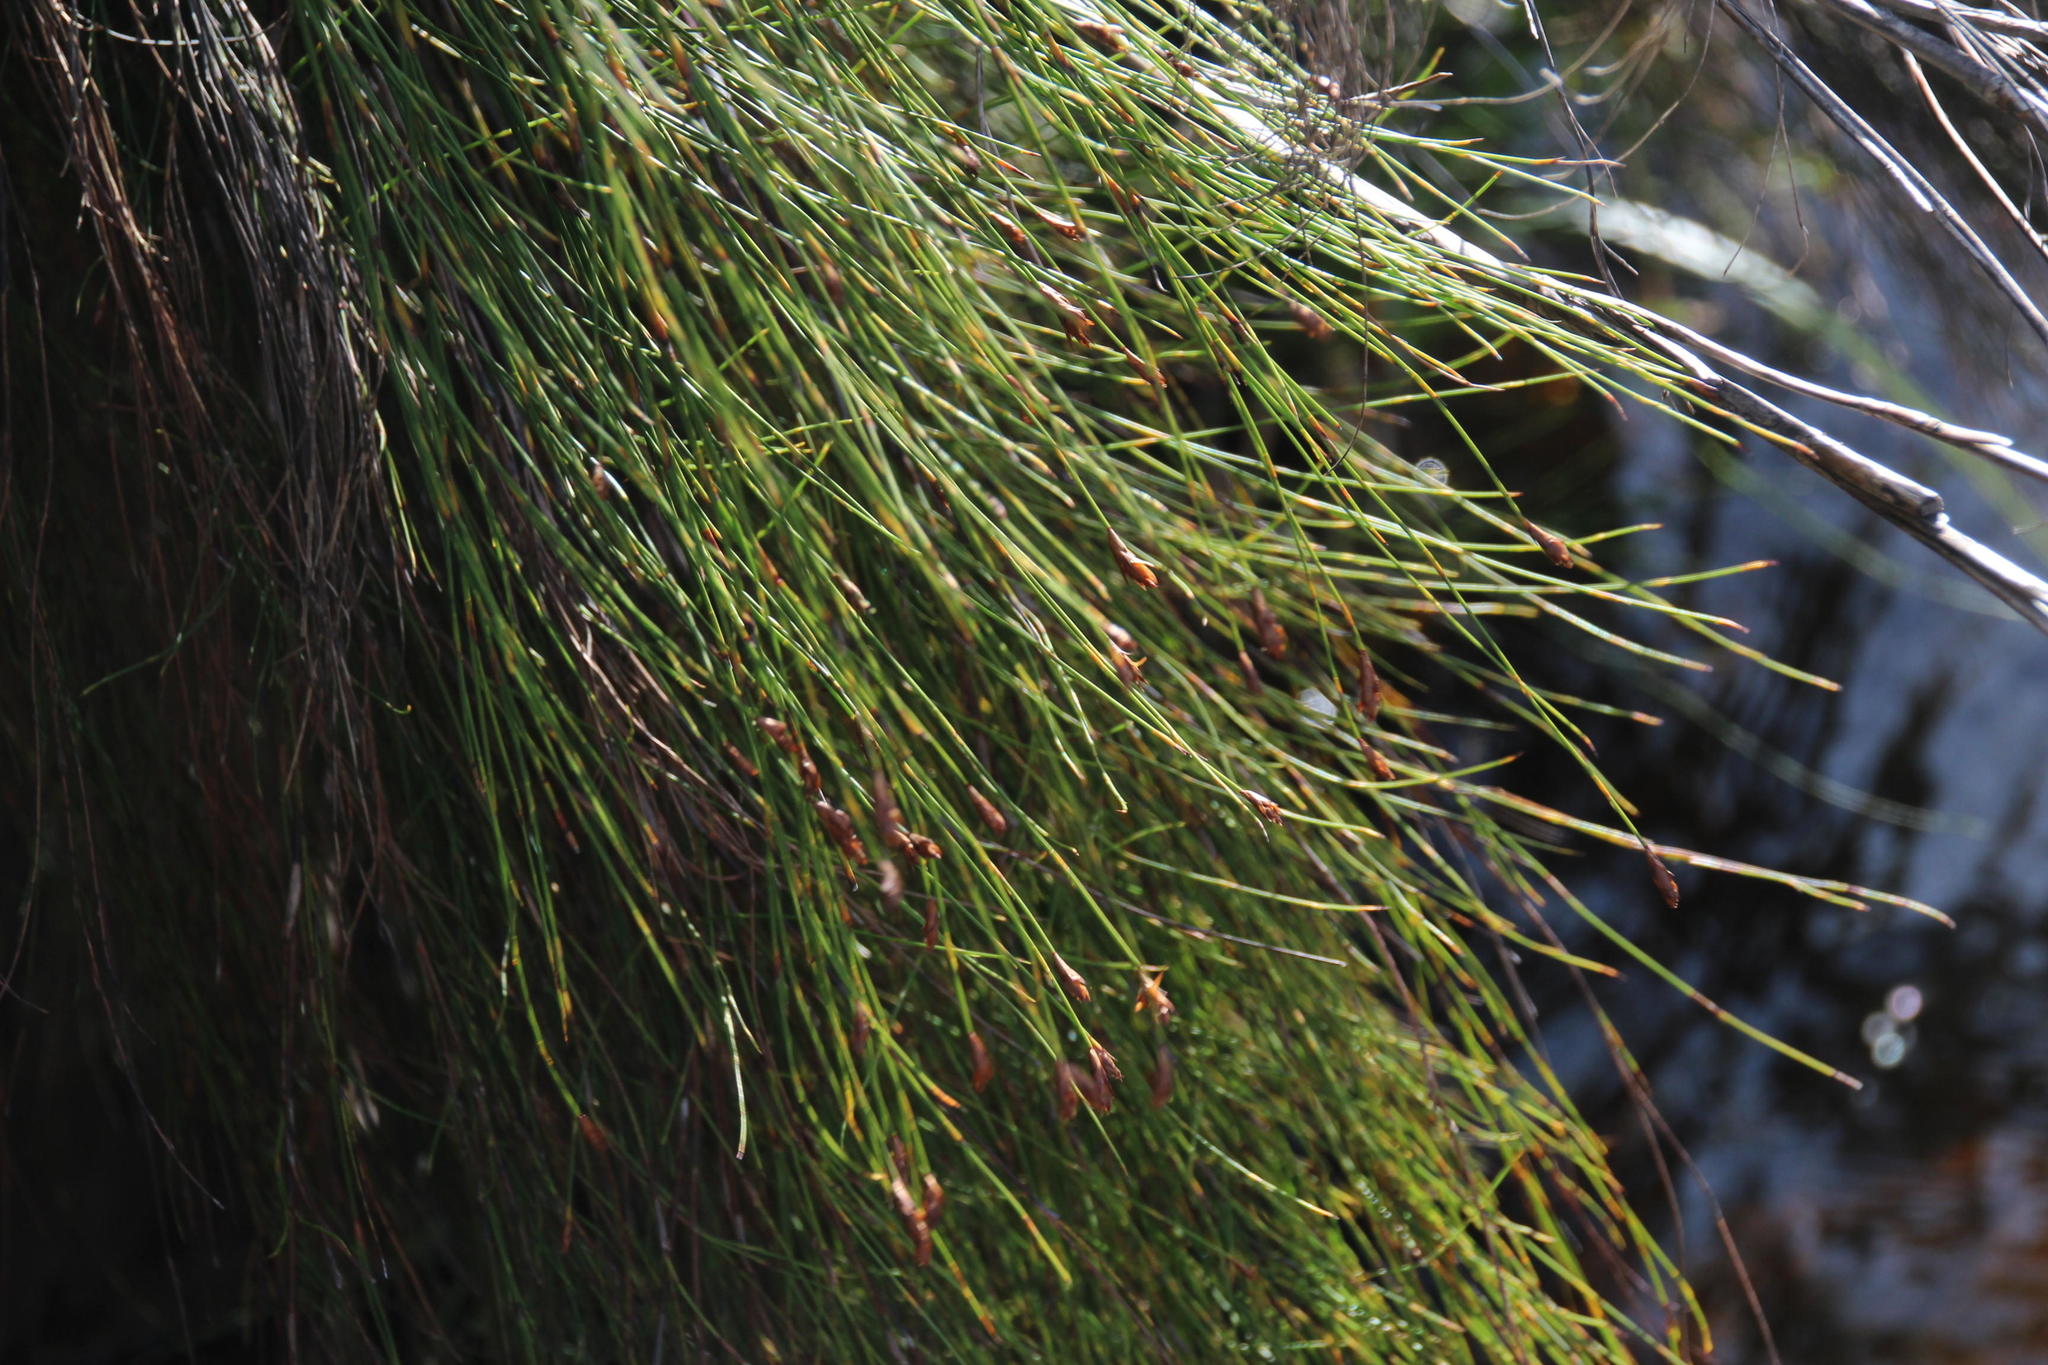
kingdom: Plantae
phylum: Tracheophyta
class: Liliopsida
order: Poales
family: Restionaceae
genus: Platycaulos
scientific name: Platycaulos callistachyus
